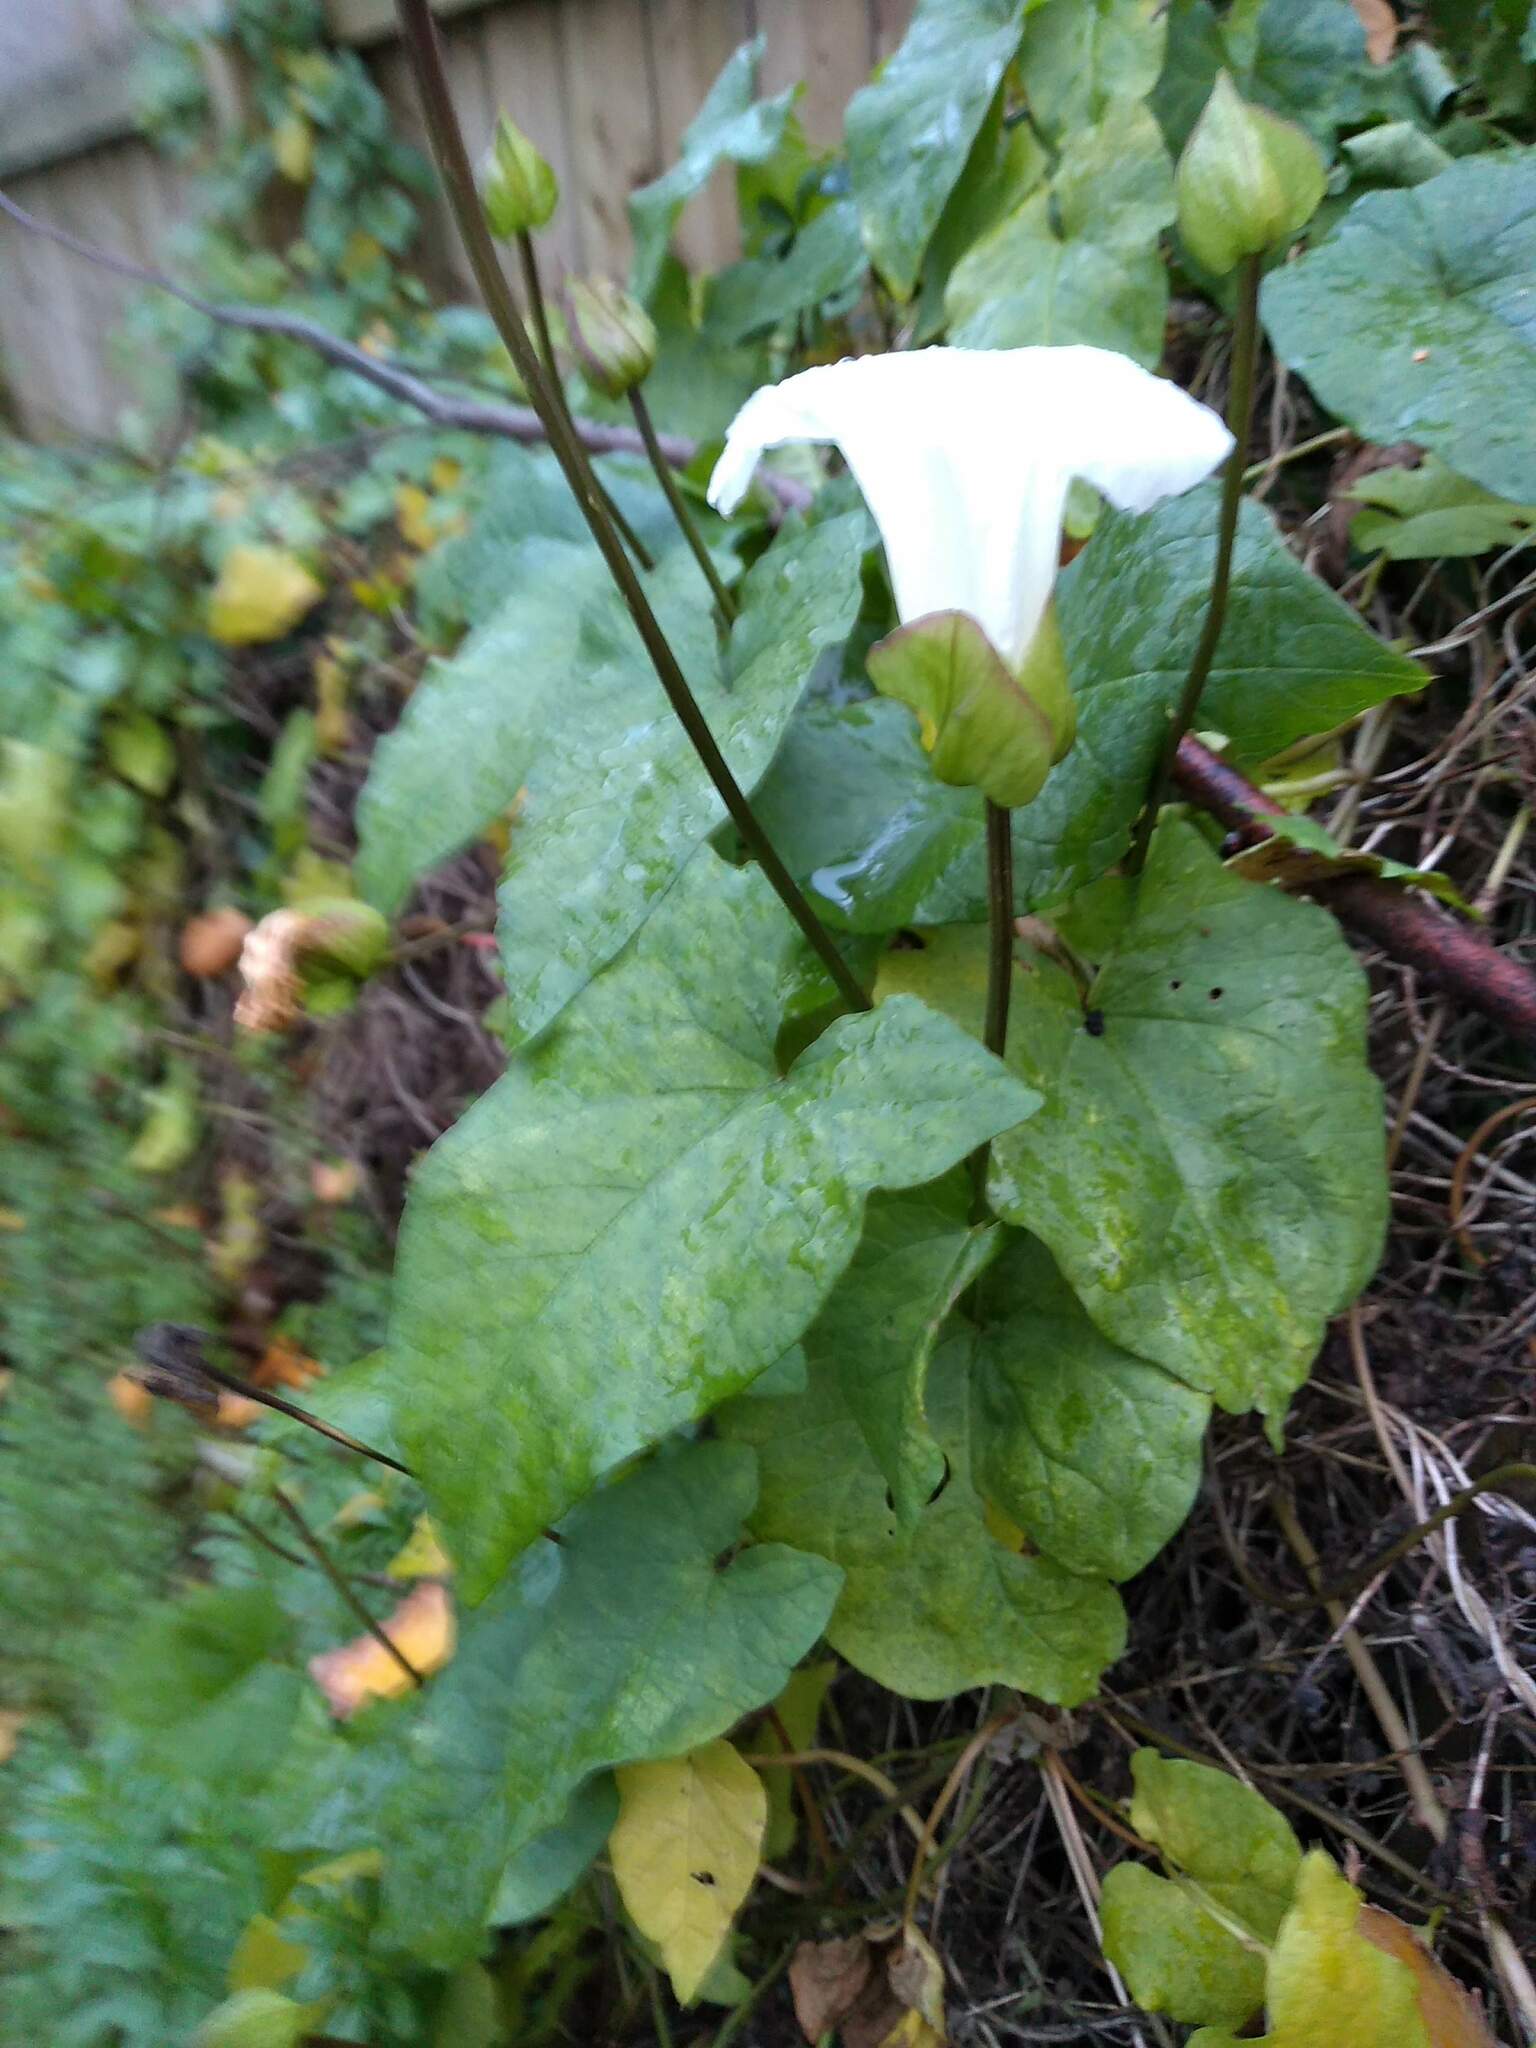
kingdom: Plantae
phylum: Tracheophyta
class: Magnoliopsida
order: Solanales
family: Convolvulaceae
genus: Calystegia
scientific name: Calystegia silvatica
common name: Large bindweed
